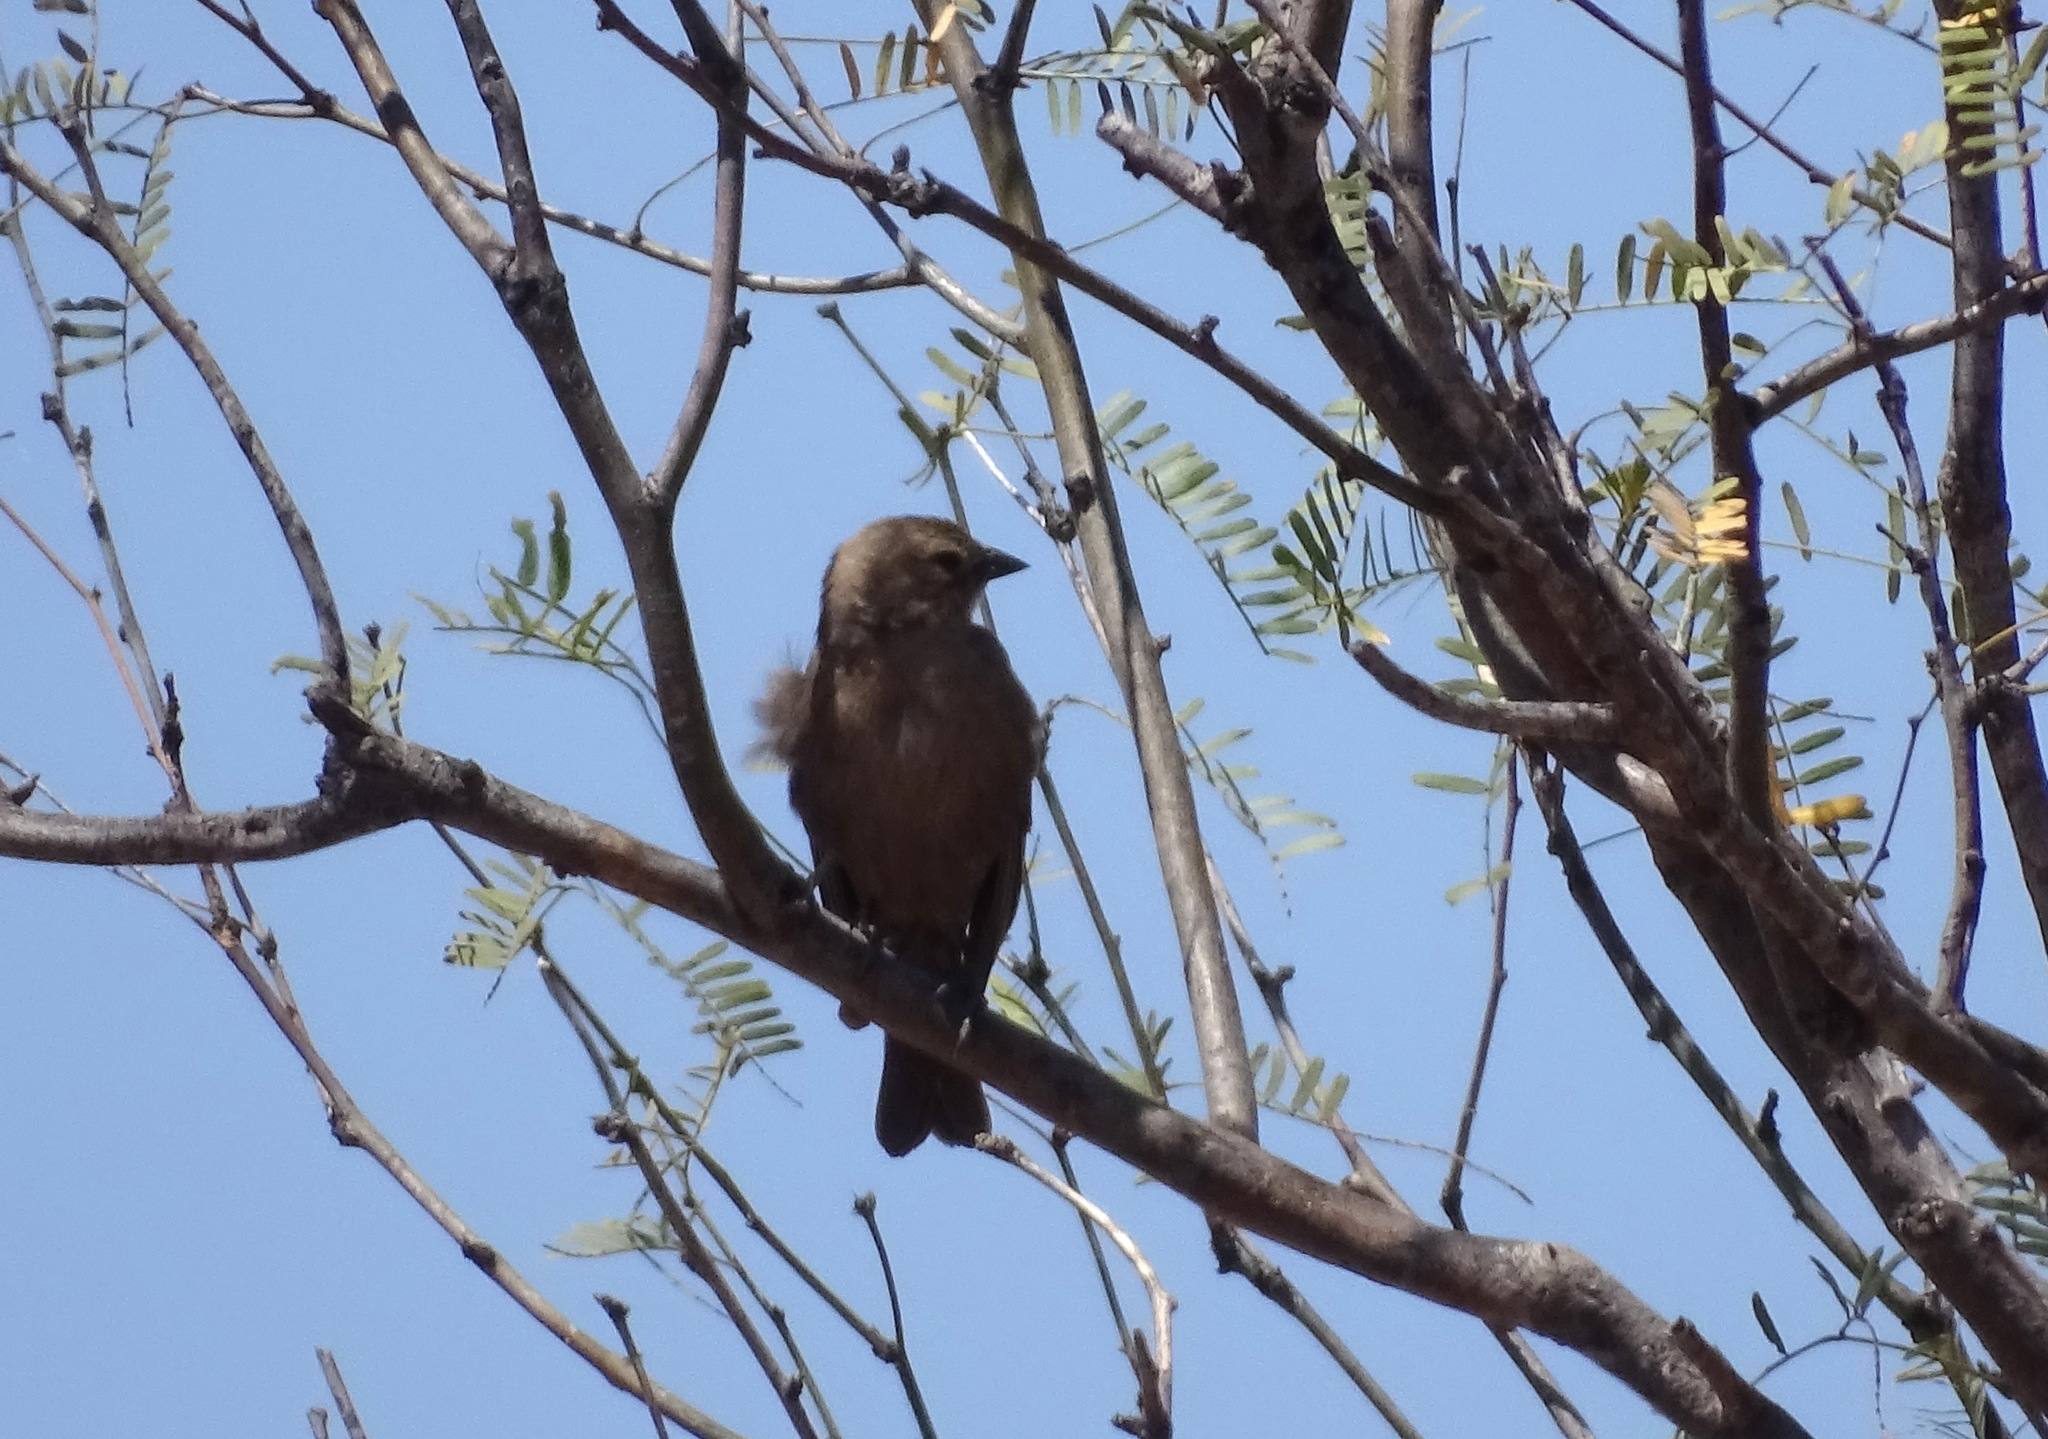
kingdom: Animalia
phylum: Chordata
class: Aves
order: Passeriformes
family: Icteridae
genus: Molothrus
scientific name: Molothrus ater
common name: Brown-headed cowbird
